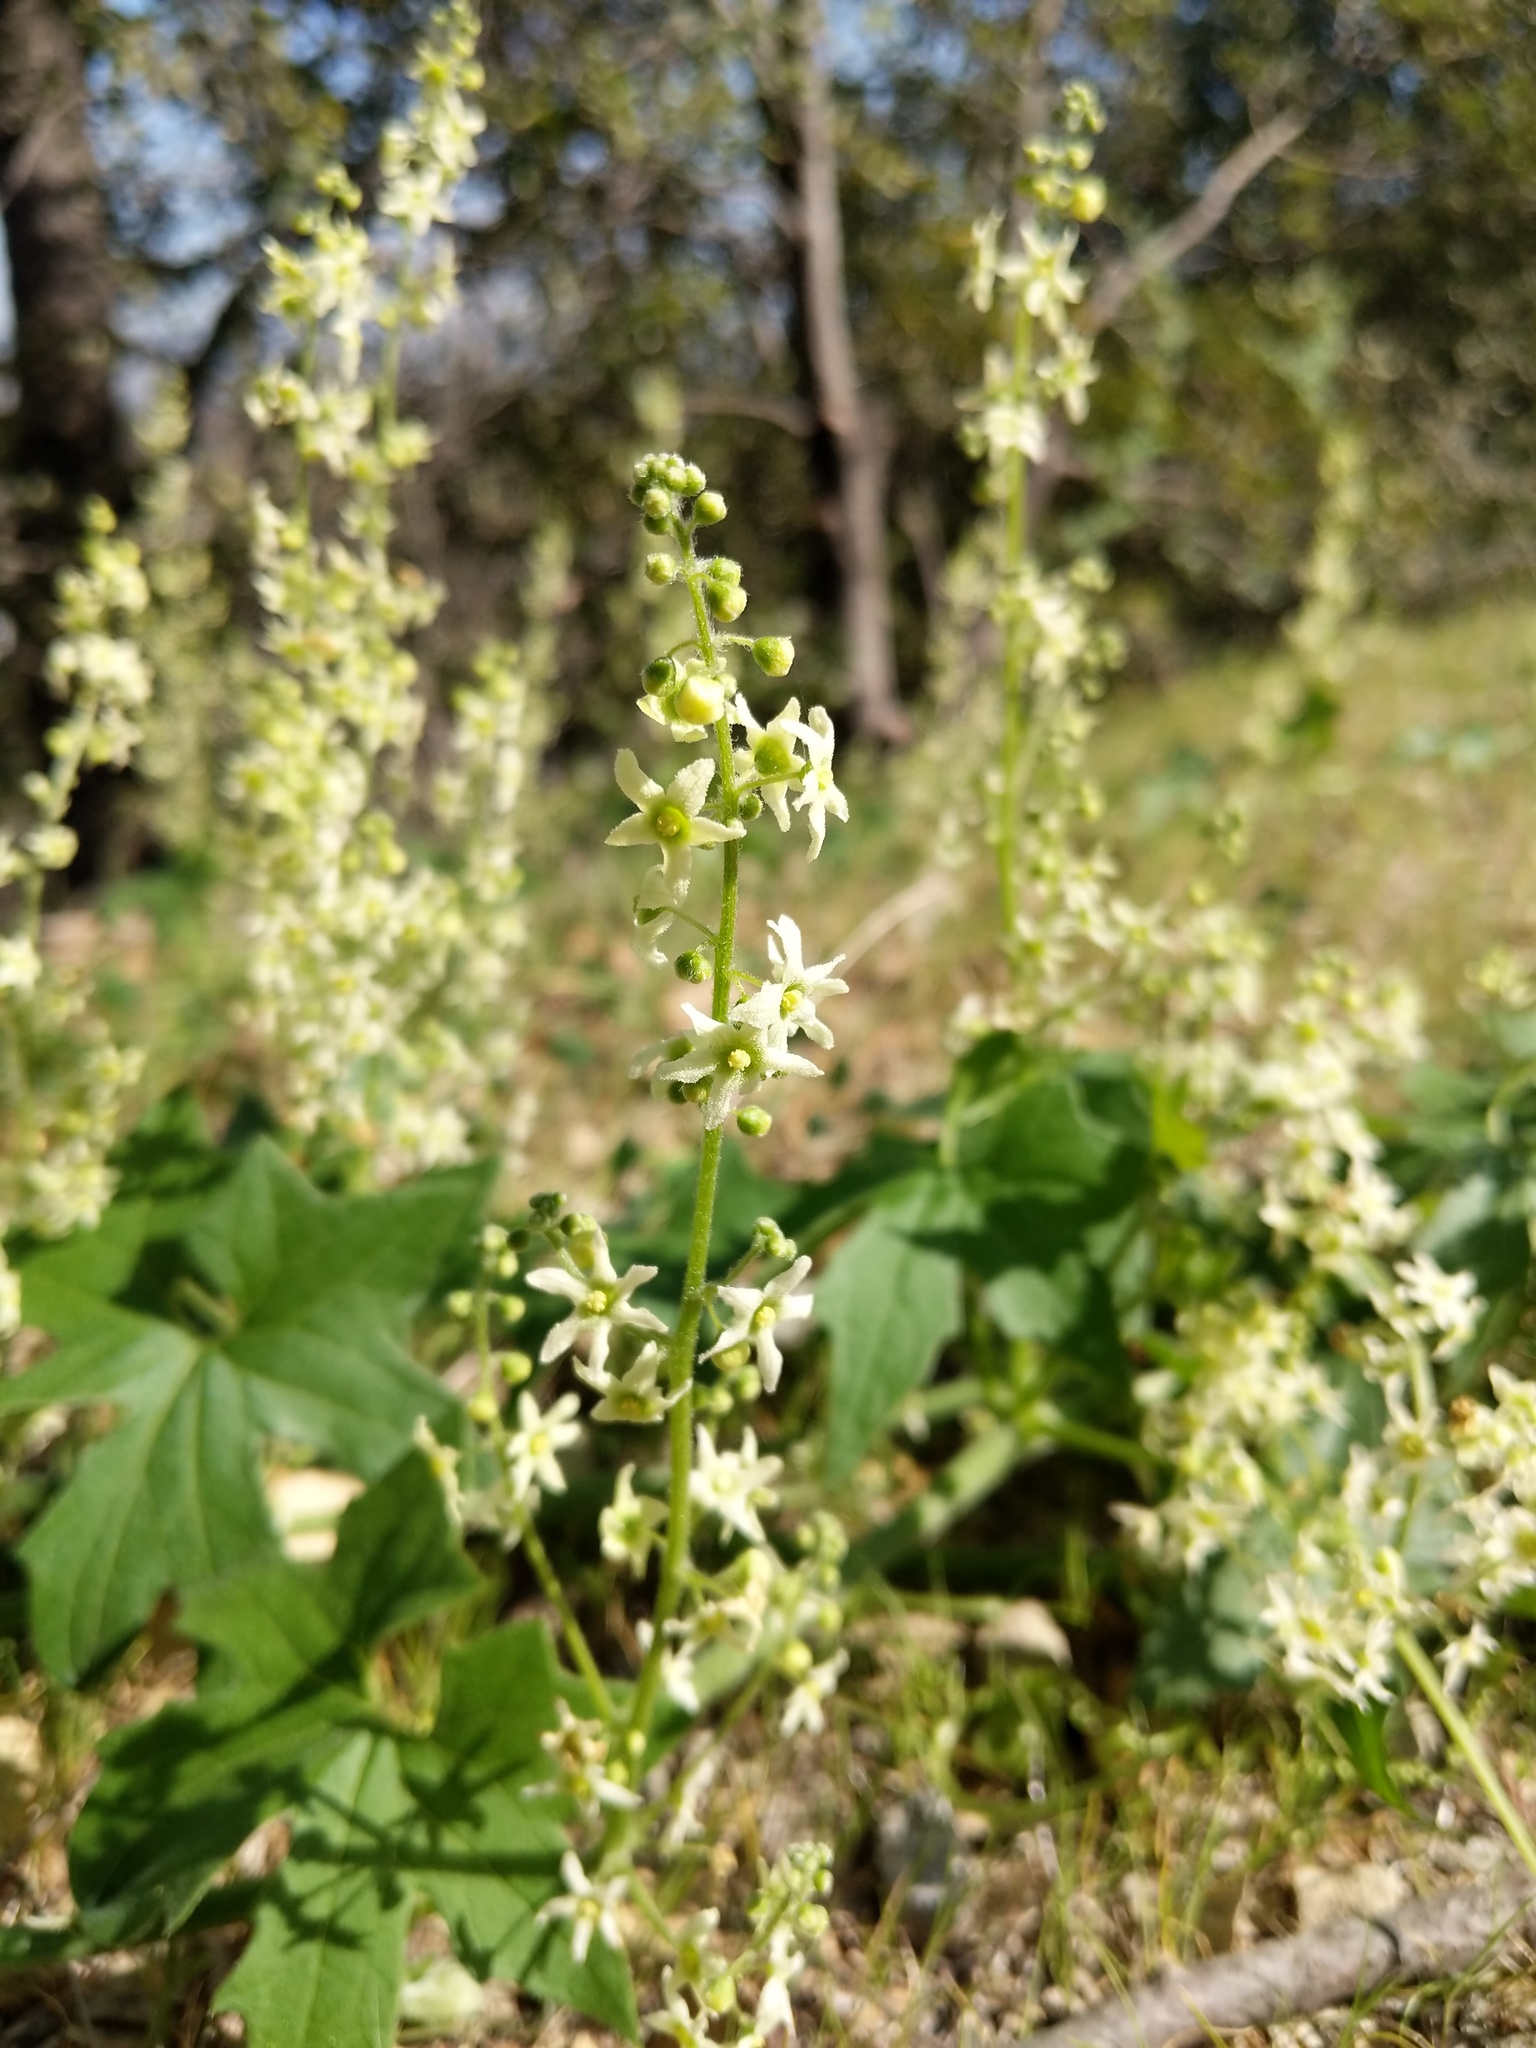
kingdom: Plantae
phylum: Tracheophyta
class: Magnoliopsida
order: Cucurbitales
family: Cucurbitaceae
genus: Marah
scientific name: Marah fabacea
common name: California manroot
